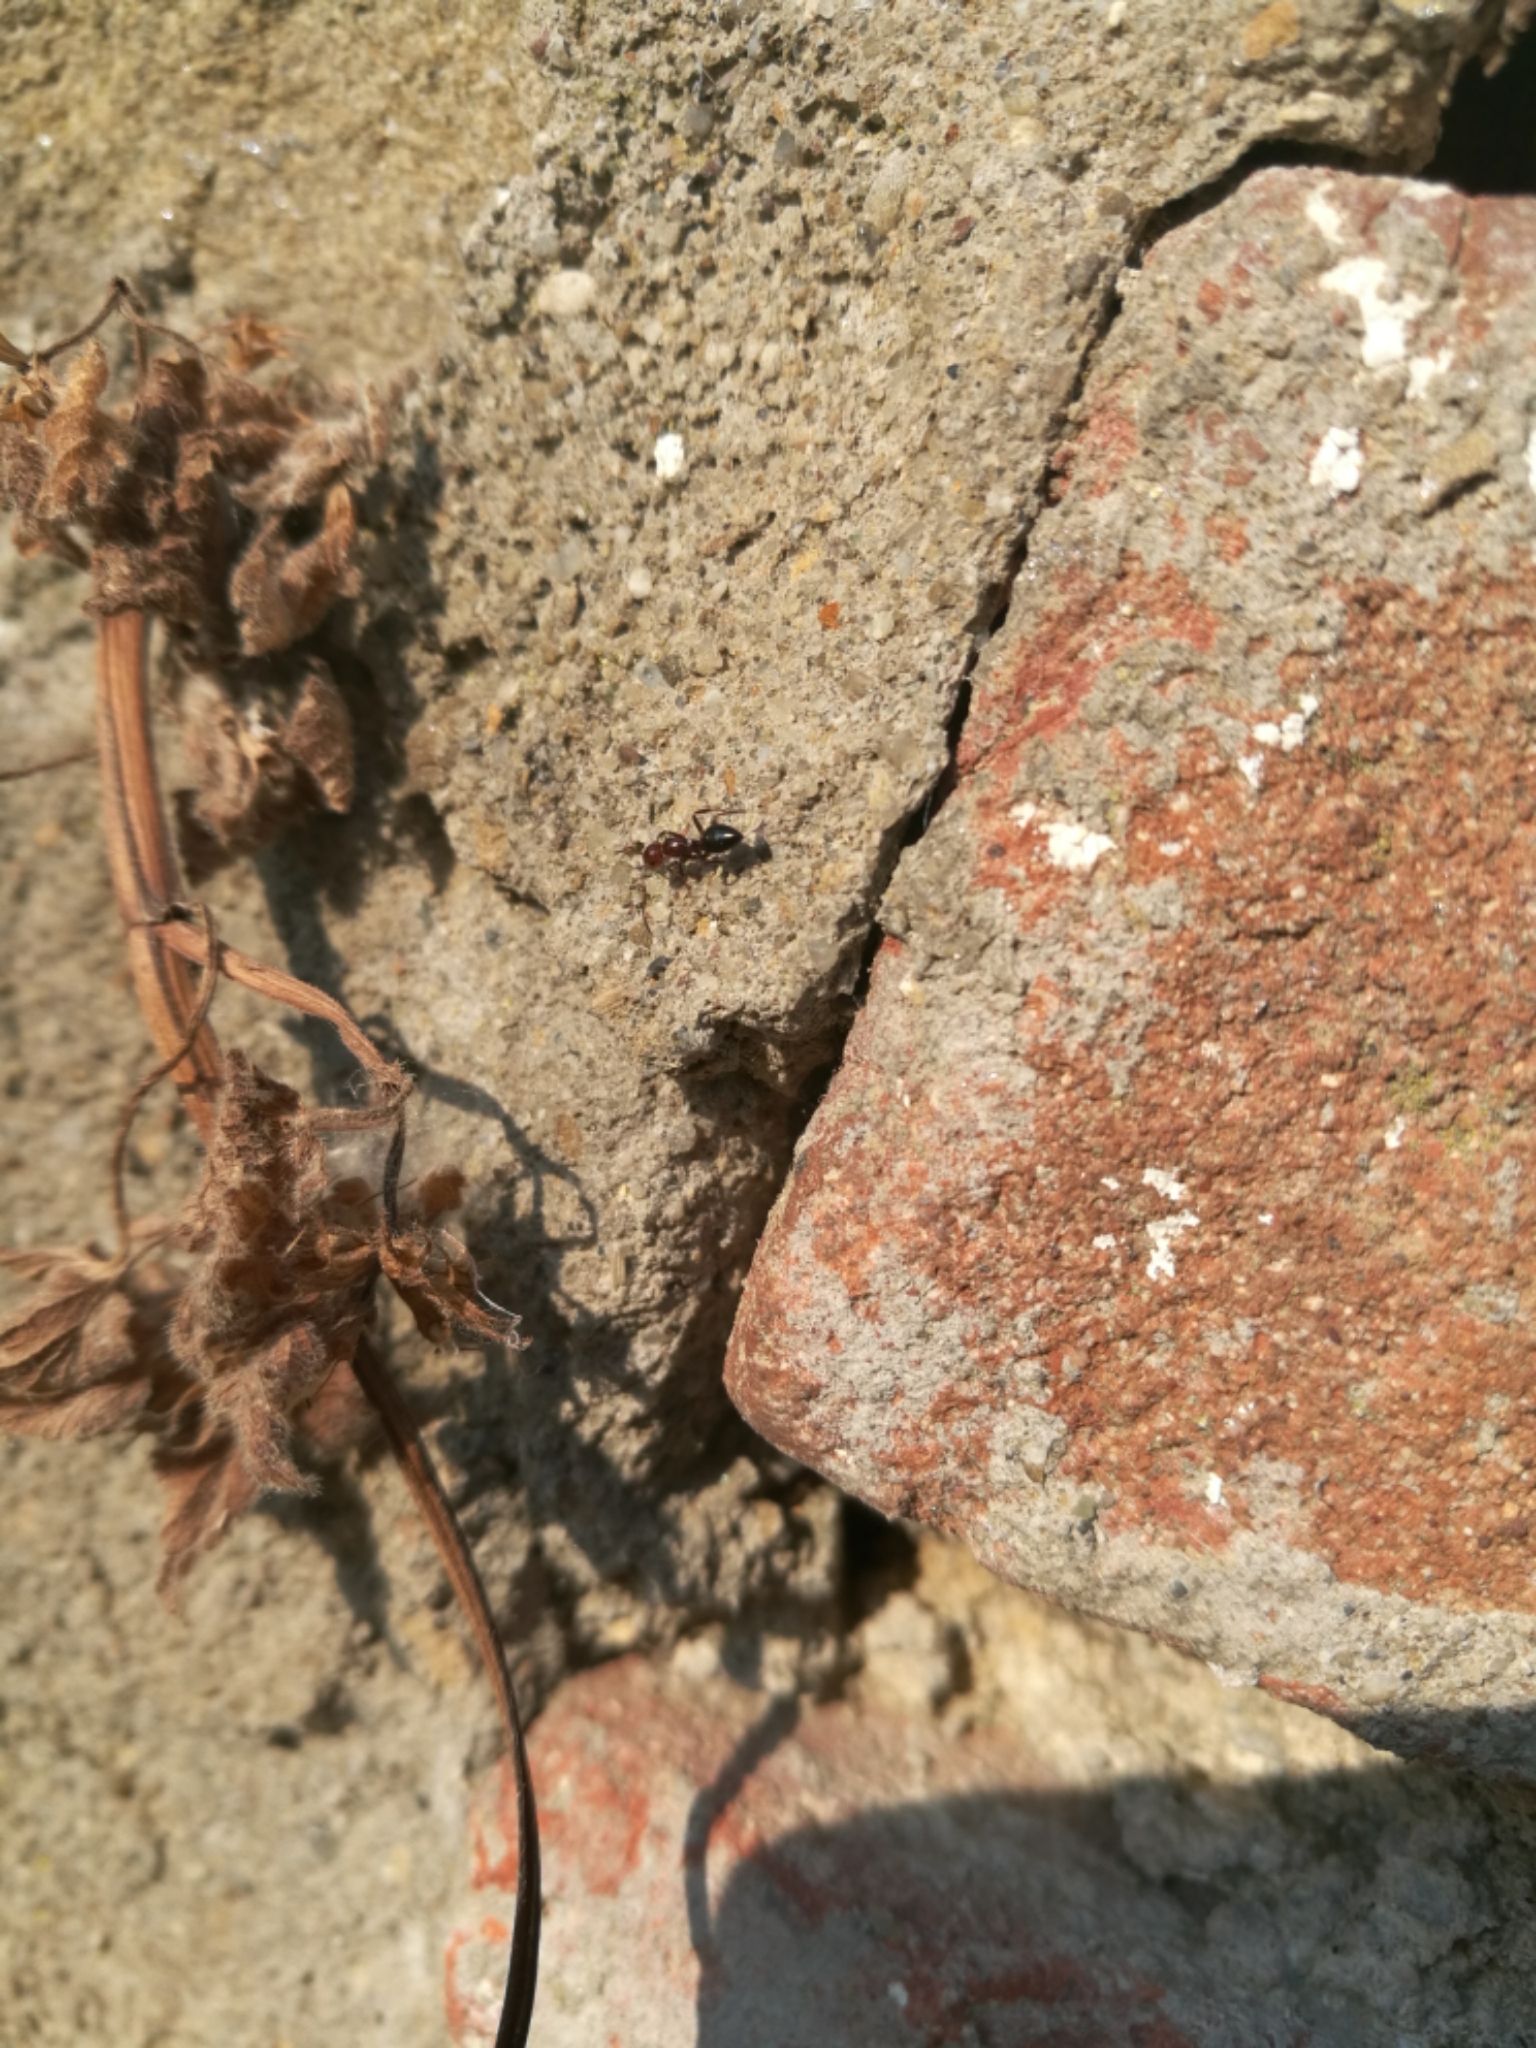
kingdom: Animalia
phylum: Arthropoda
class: Insecta
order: Hymenoptera
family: Formicidae
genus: Camponotus
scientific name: Camponotus lateralis
